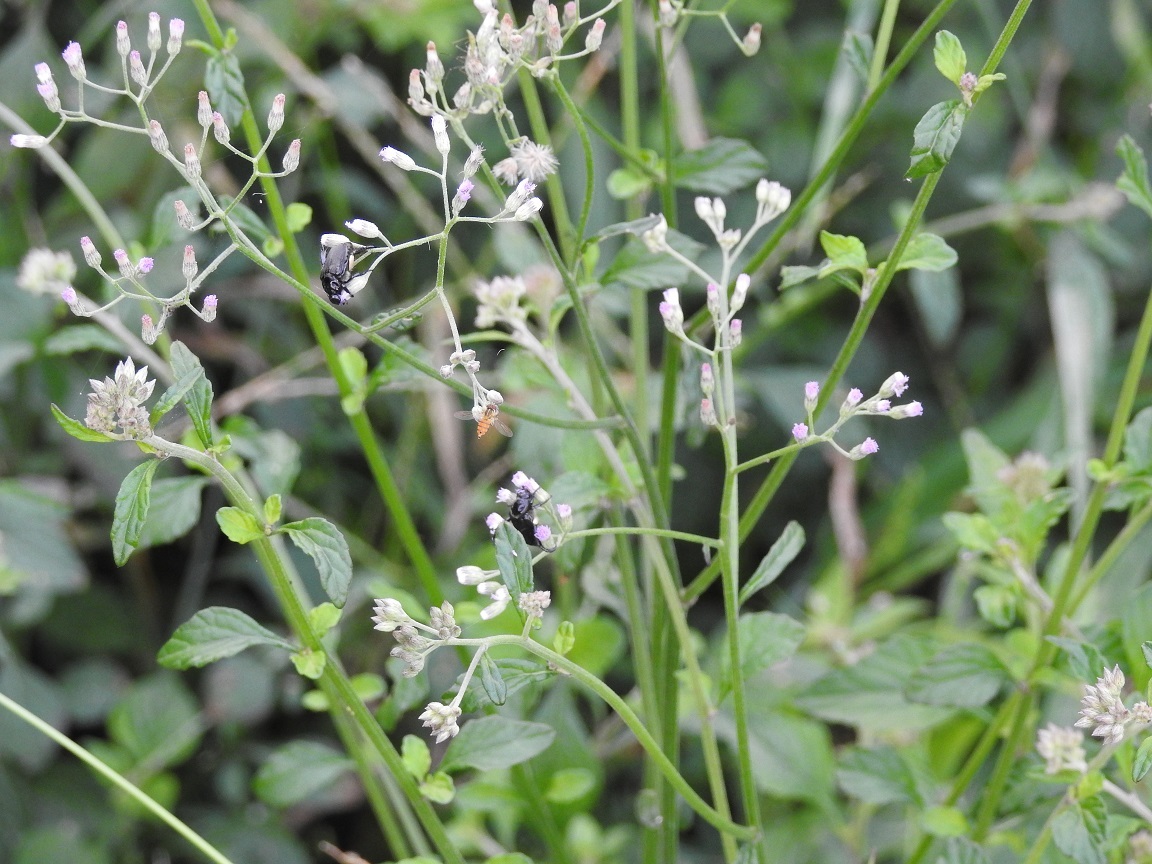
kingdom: Plantae
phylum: Tracheophyta
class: Magnoliopsida
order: Asterales
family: Asteraceae
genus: Cyanthillium
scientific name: Cyanthillium cinereum
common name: Little ironweed
